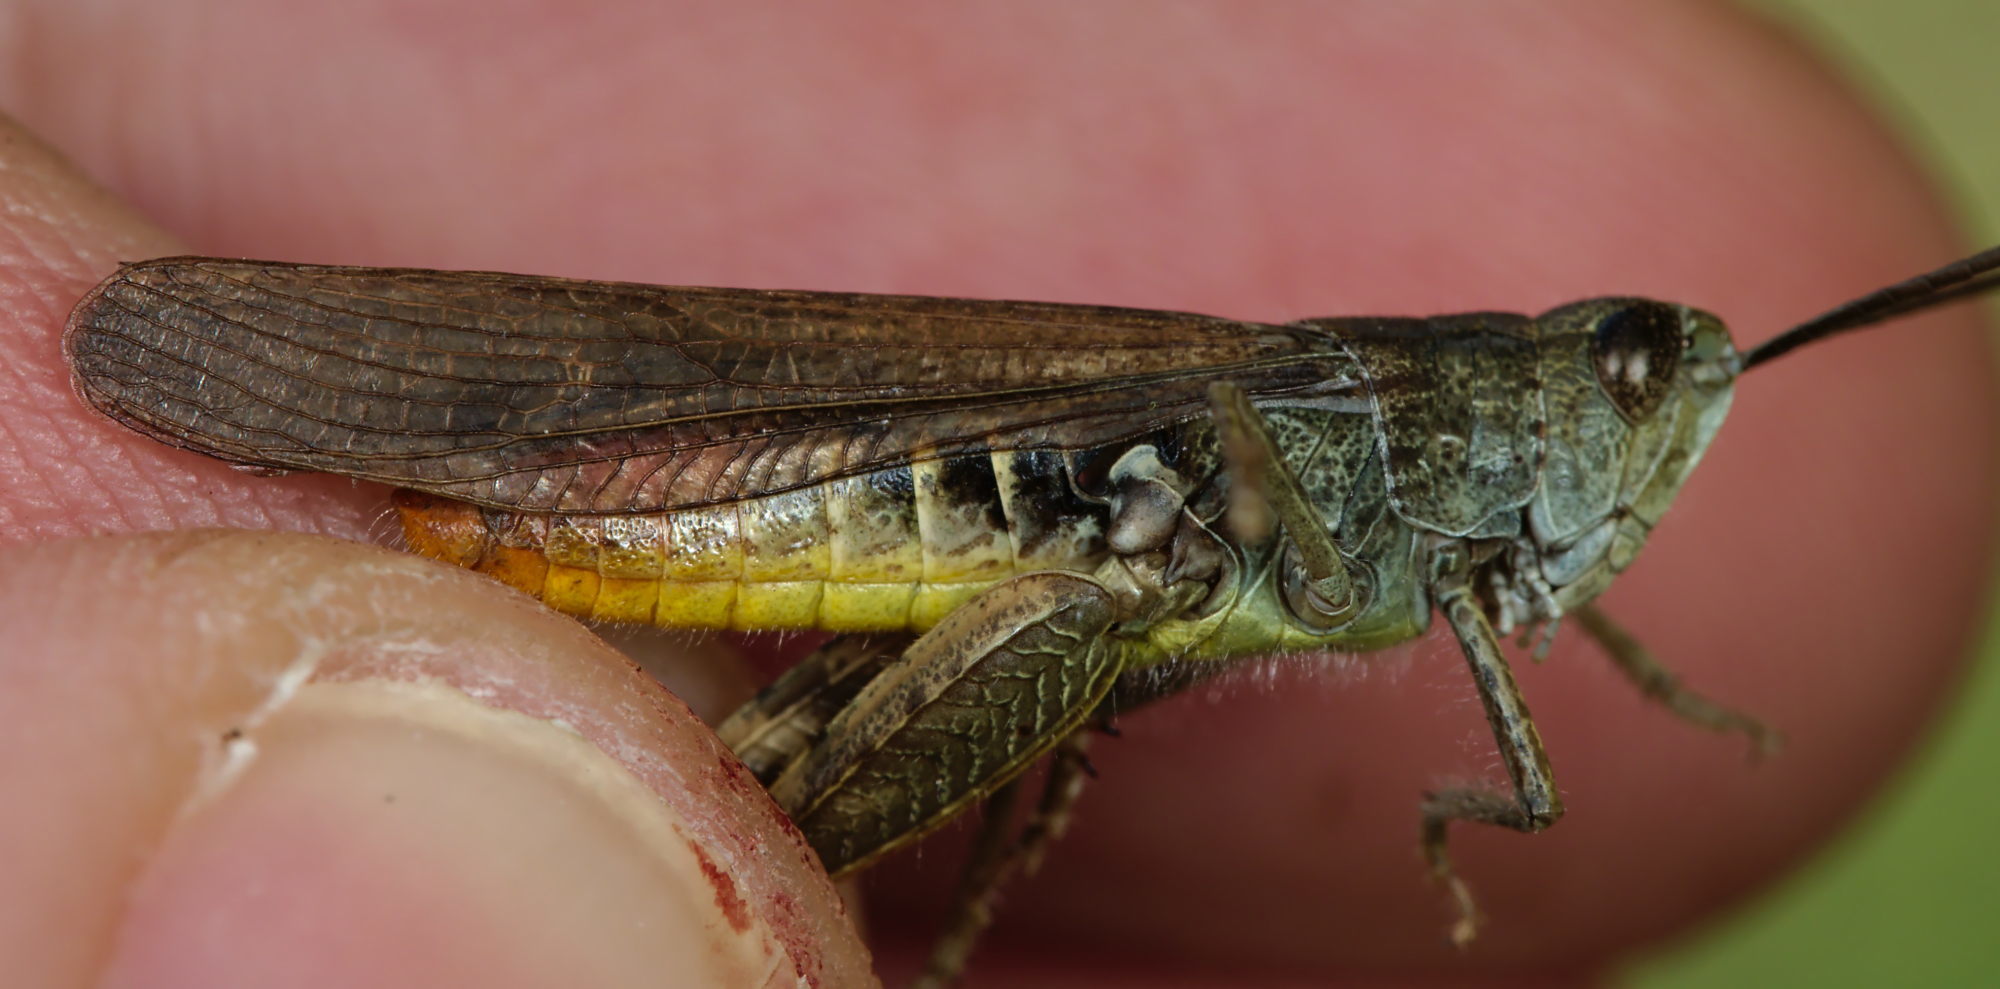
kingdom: Animalia
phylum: Arthropoda
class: Insecta
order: Orthoptera
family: Acrididae
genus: Chorthippus
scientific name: Chorthippus brunneus
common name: Field grasshopper
